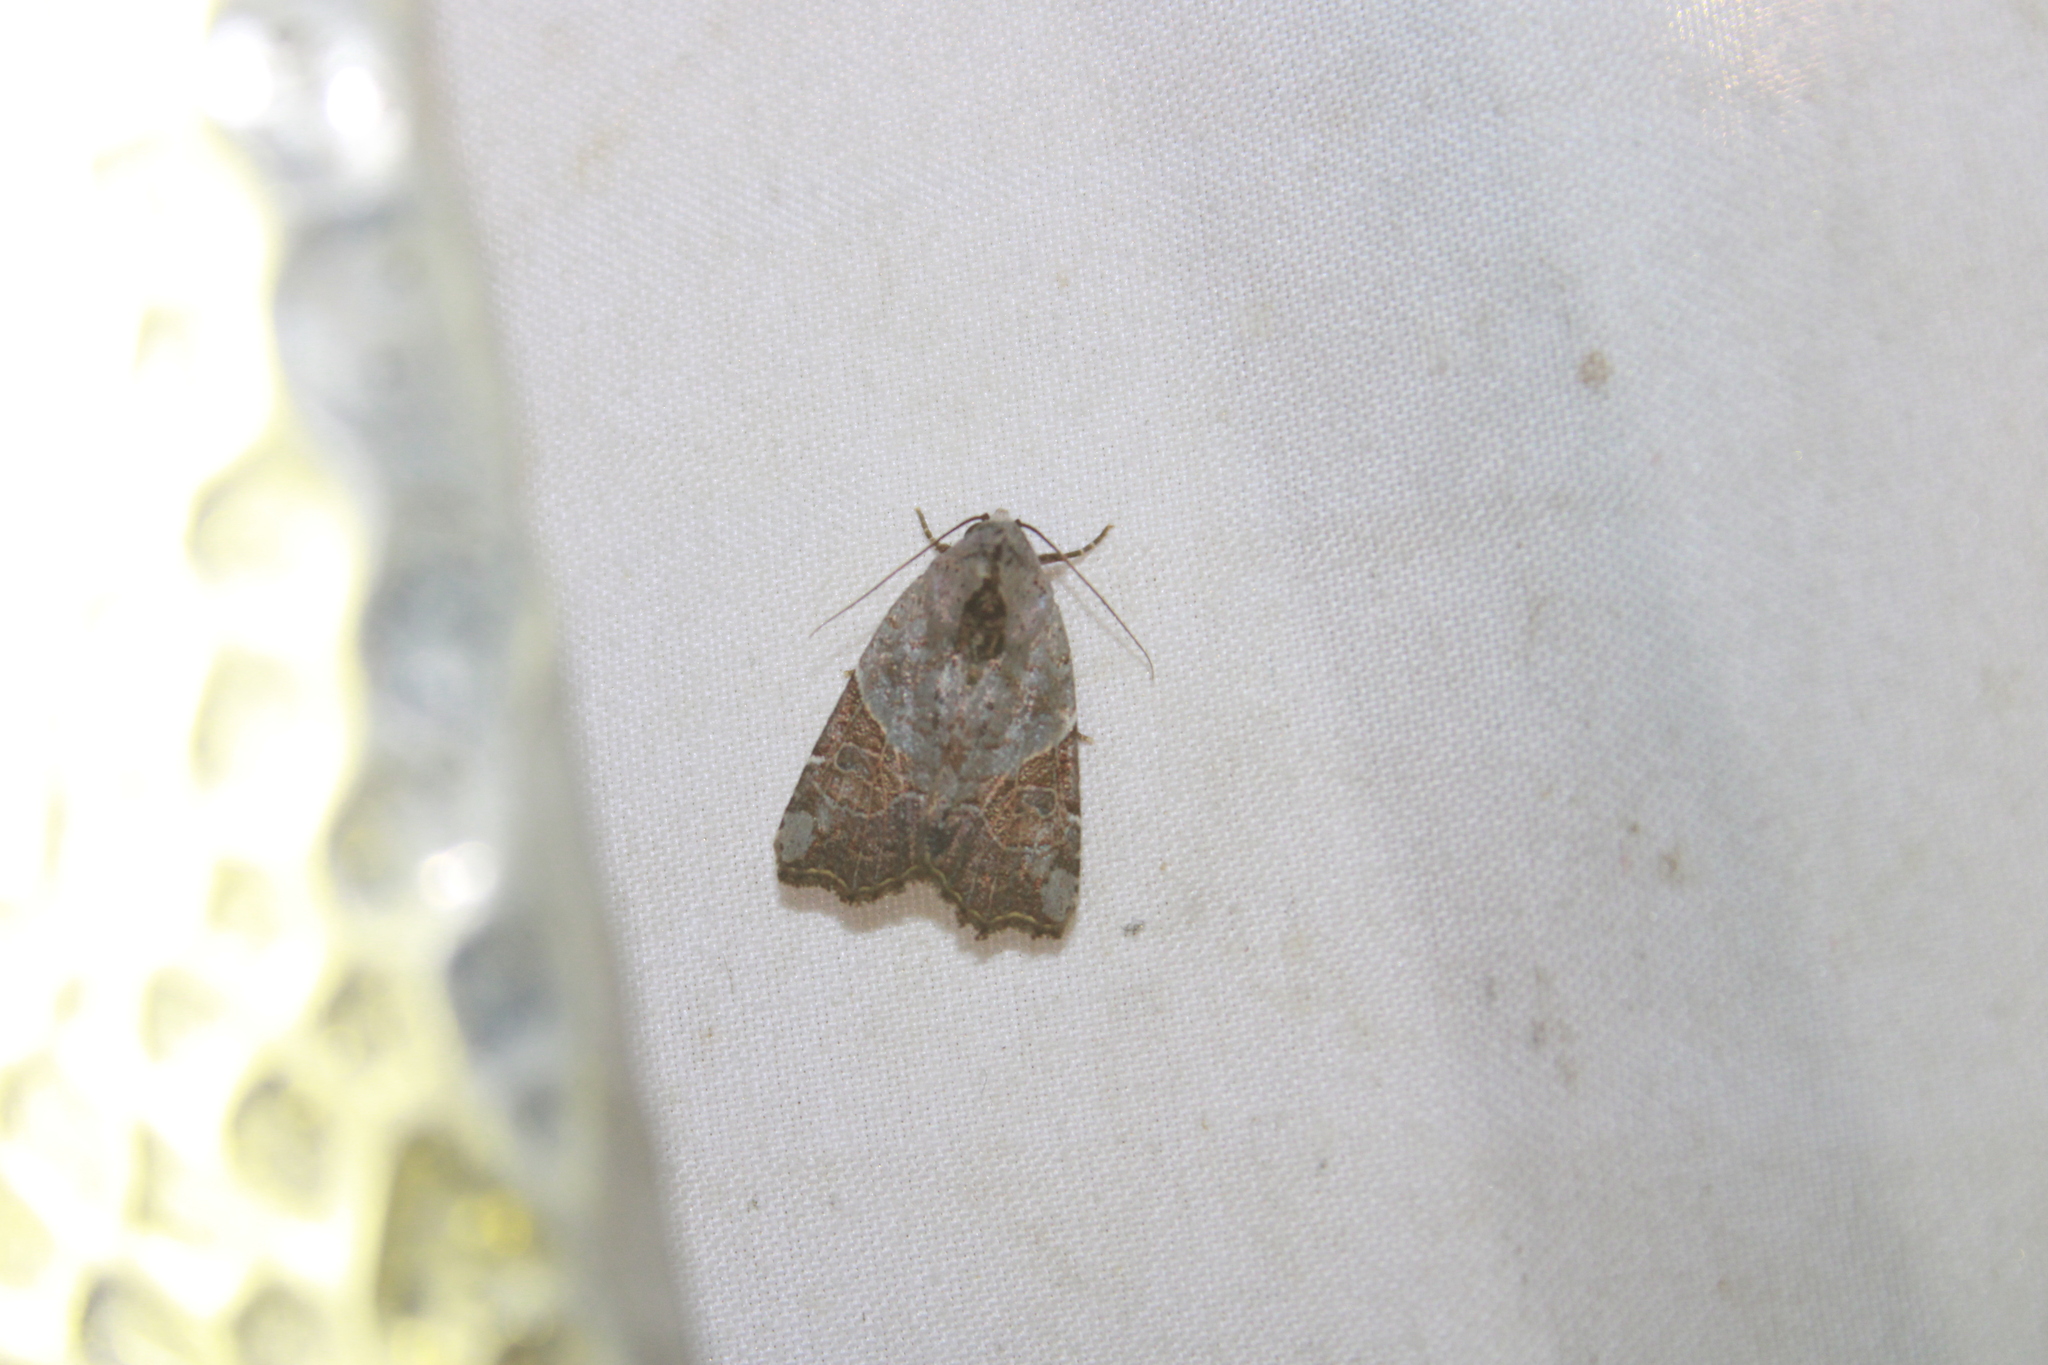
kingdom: Animalia
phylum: Arthropoda
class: Insecta
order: Lepidoptera
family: Noctuidae
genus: Gonodes
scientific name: Gonodes liquida
